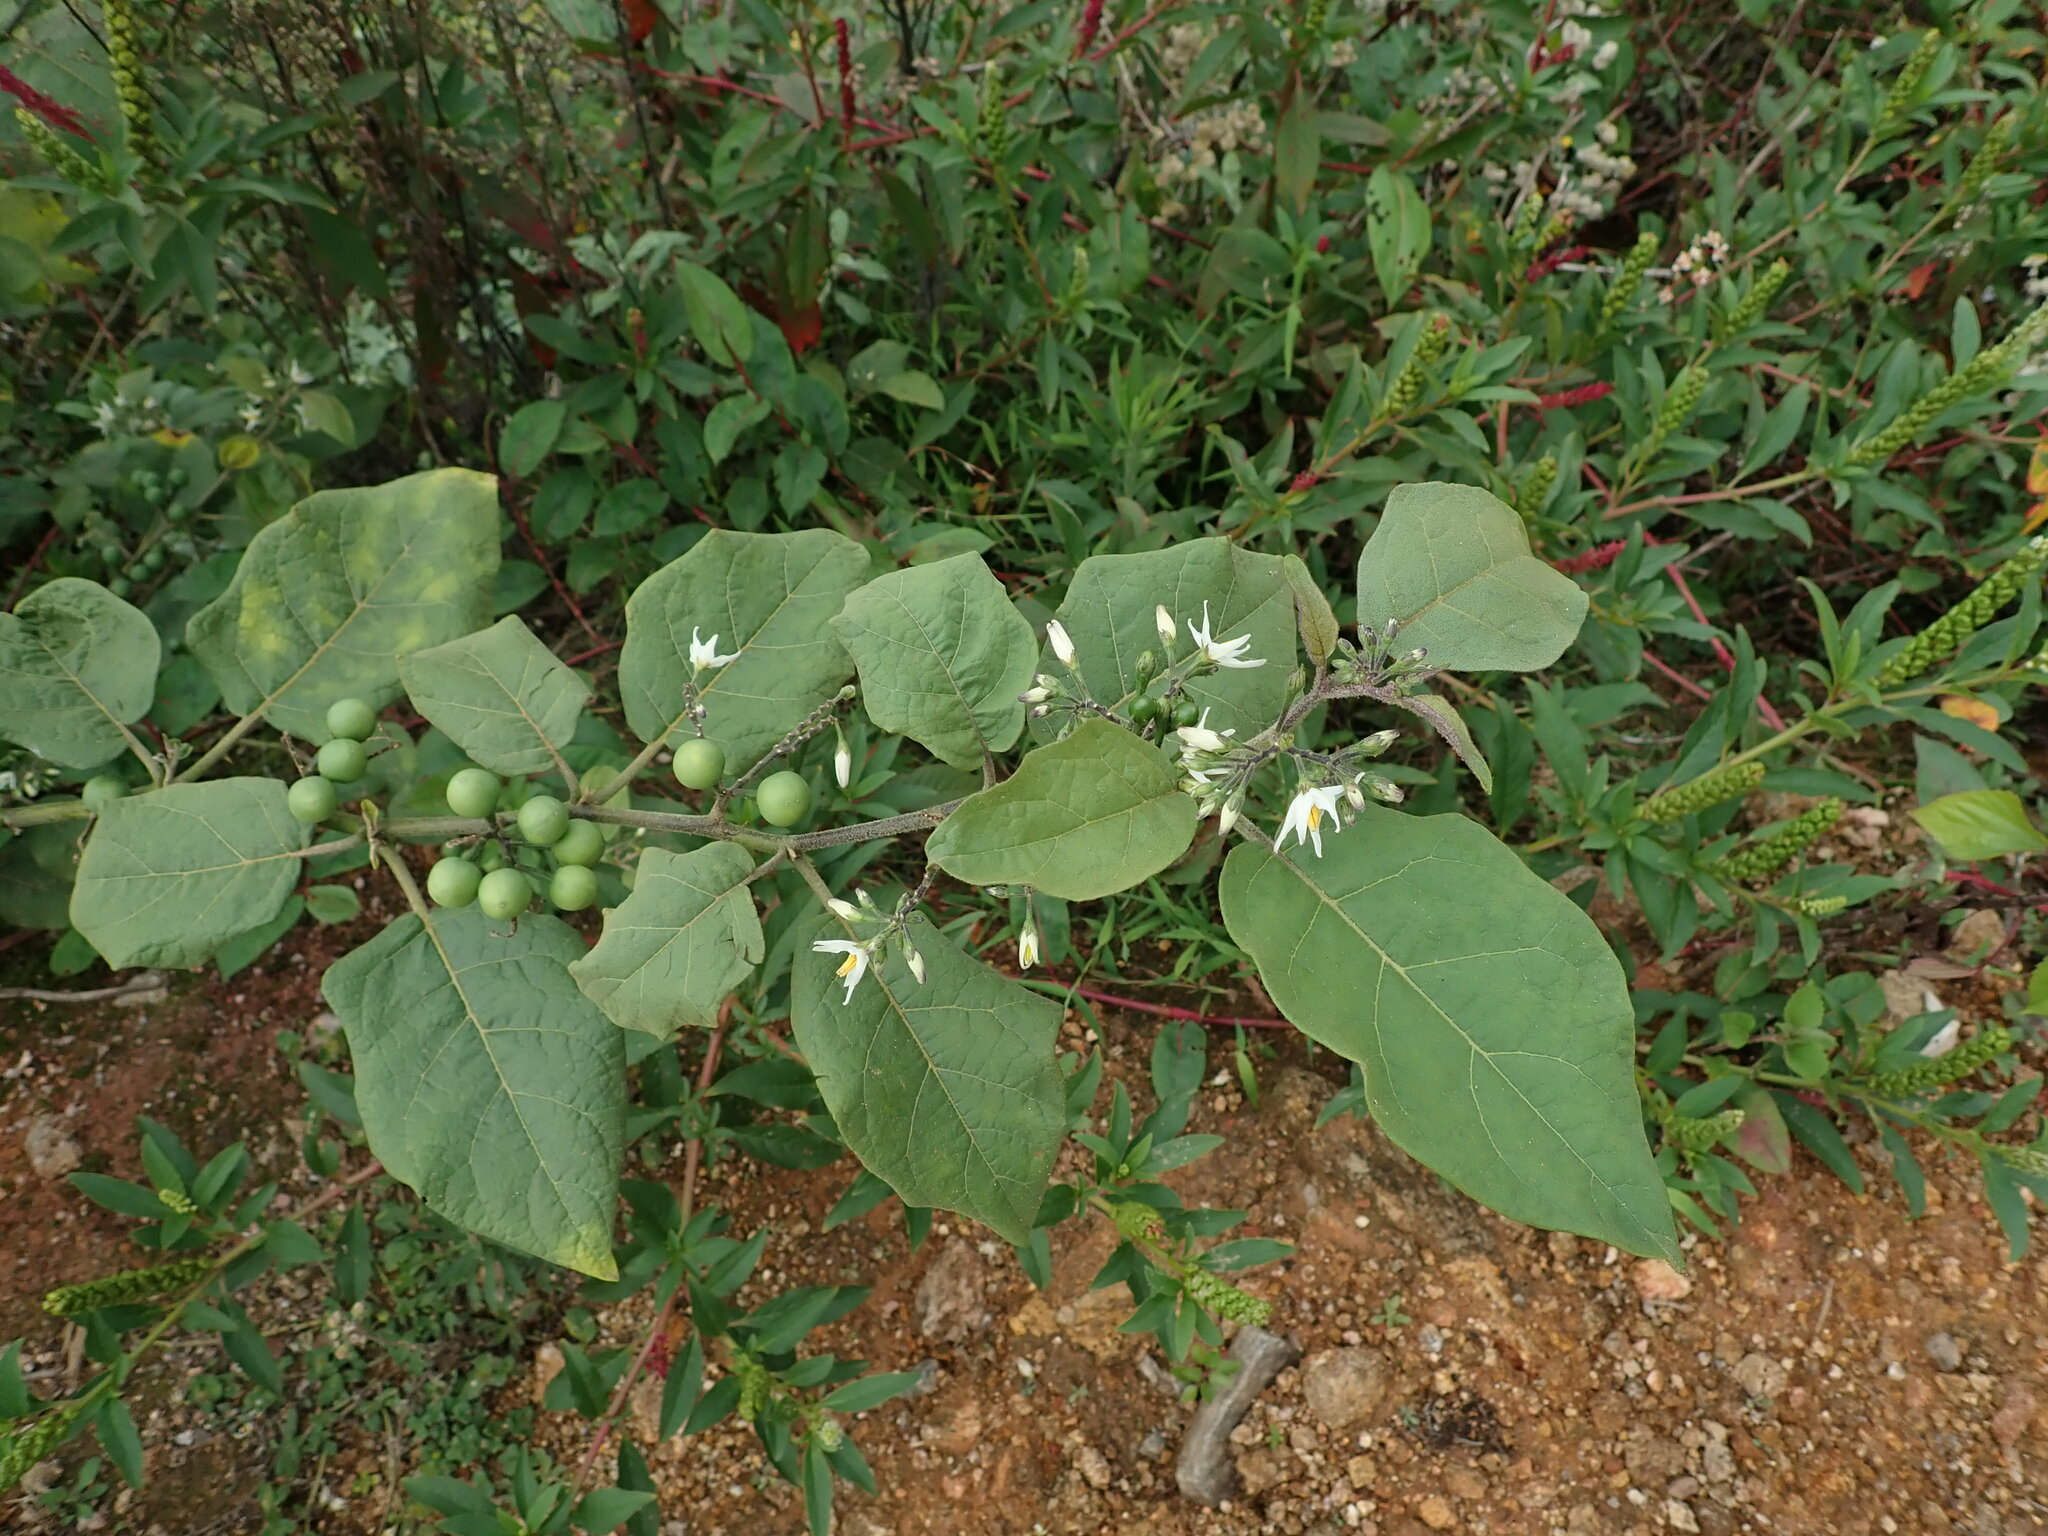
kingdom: Plantae
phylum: Tracheophyta
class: Magnoliopsida
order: Solanales
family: Solanaceae
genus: Solanum
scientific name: Solanum torvum
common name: Turkey berry
